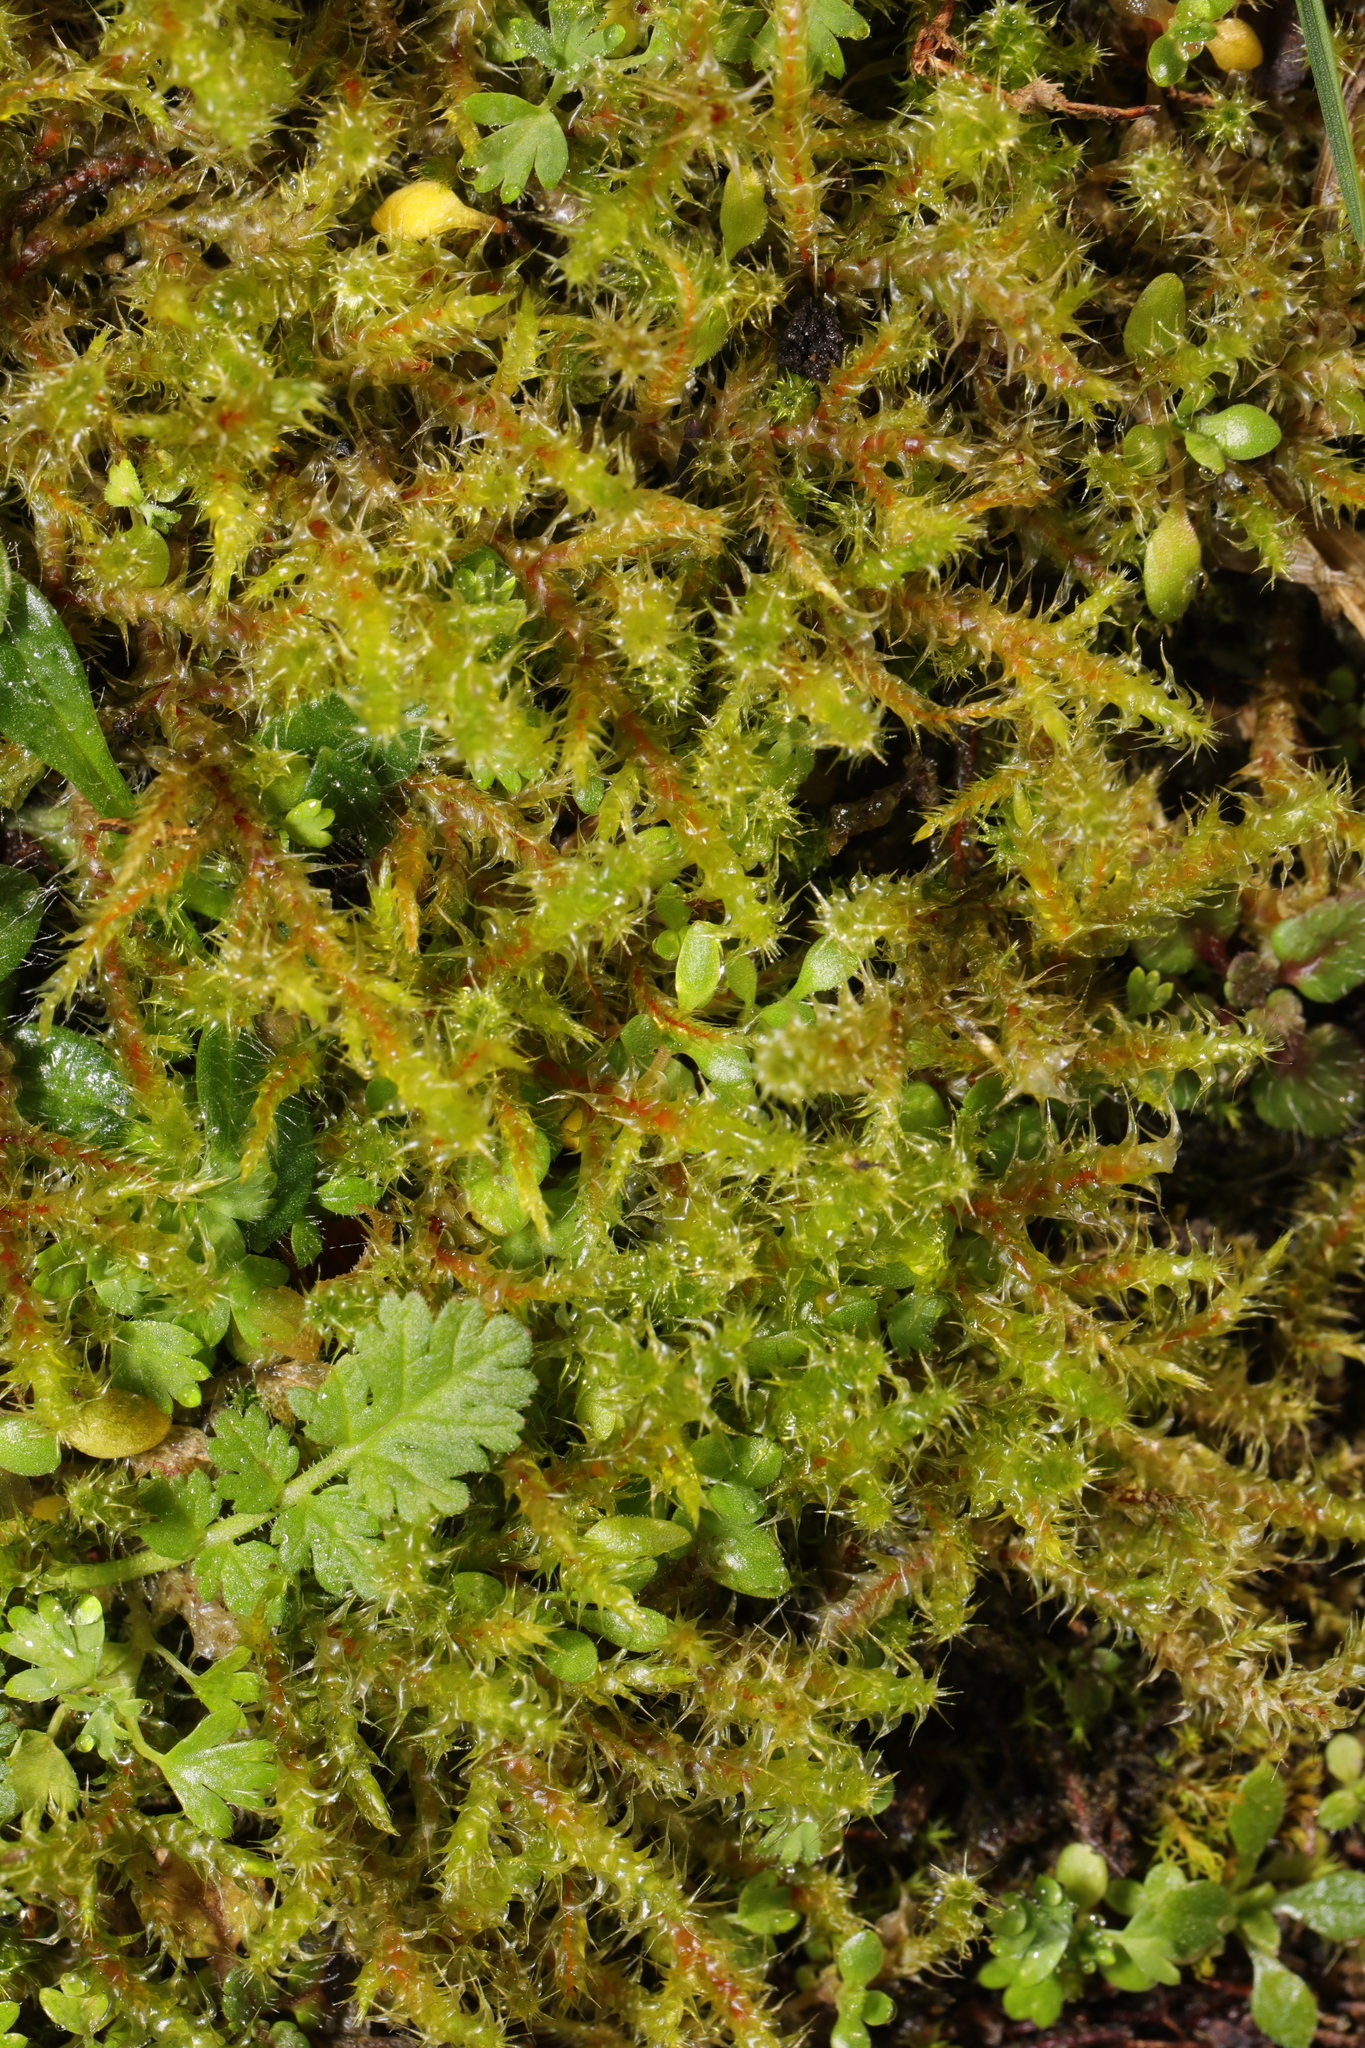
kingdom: Plantae
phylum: Bryophyta
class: Bryopsida
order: Hypnales
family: Hylocomiaceae
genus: Rhytidiadelphus
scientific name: Rhytidiadelphus squarrosus
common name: Springy turf-moss
